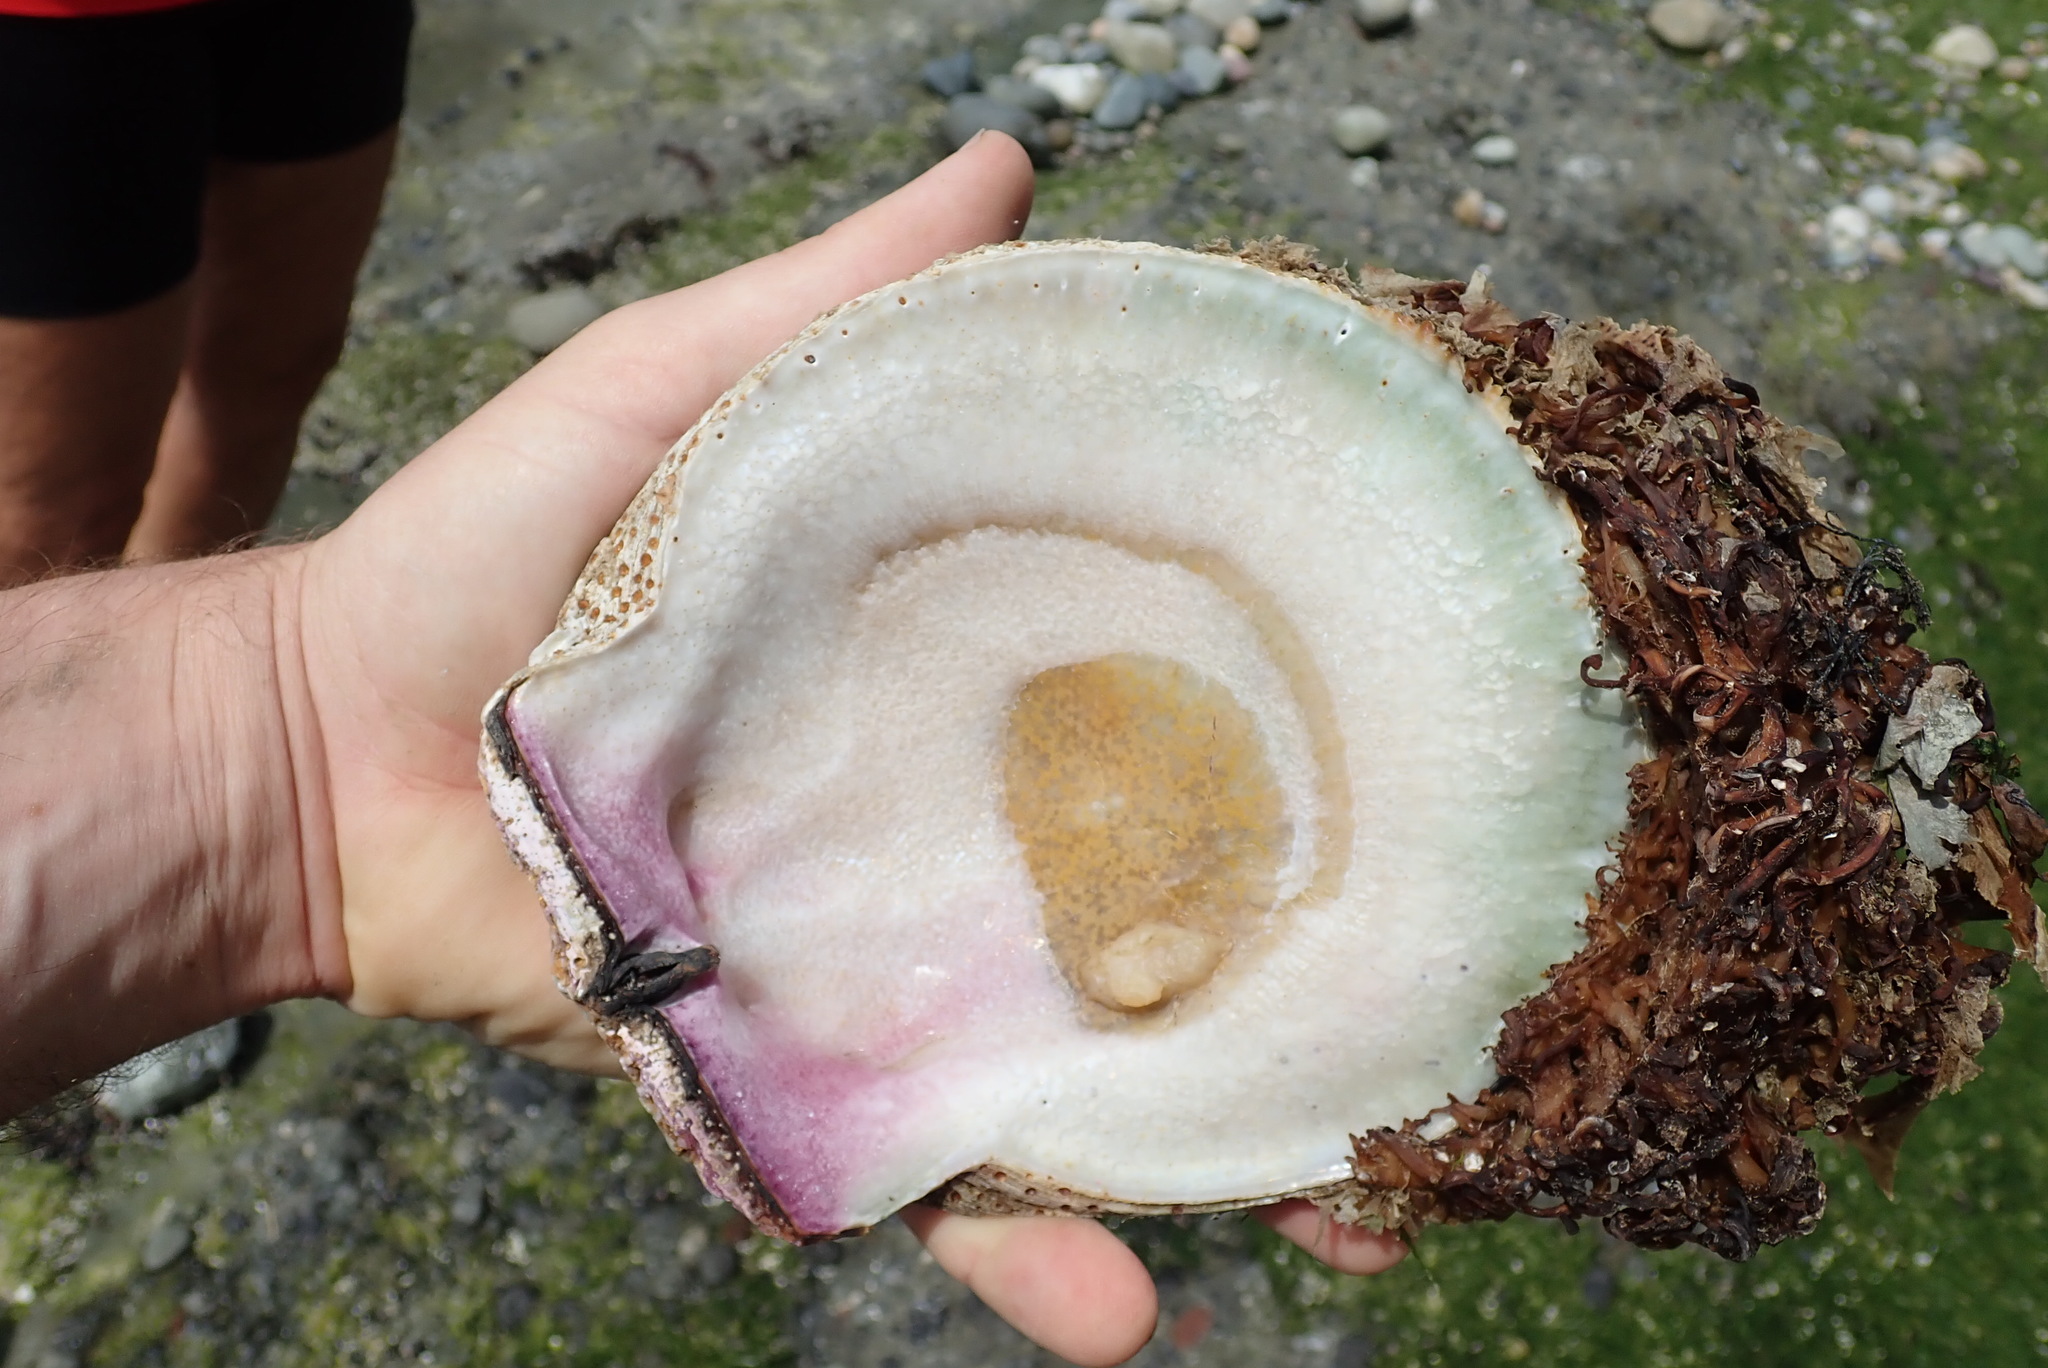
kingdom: Animalia
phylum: Mollusca
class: Bivalvia
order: Pectinida
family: Pectinidae
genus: Crassadoma
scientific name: Crassadoma gigantea
